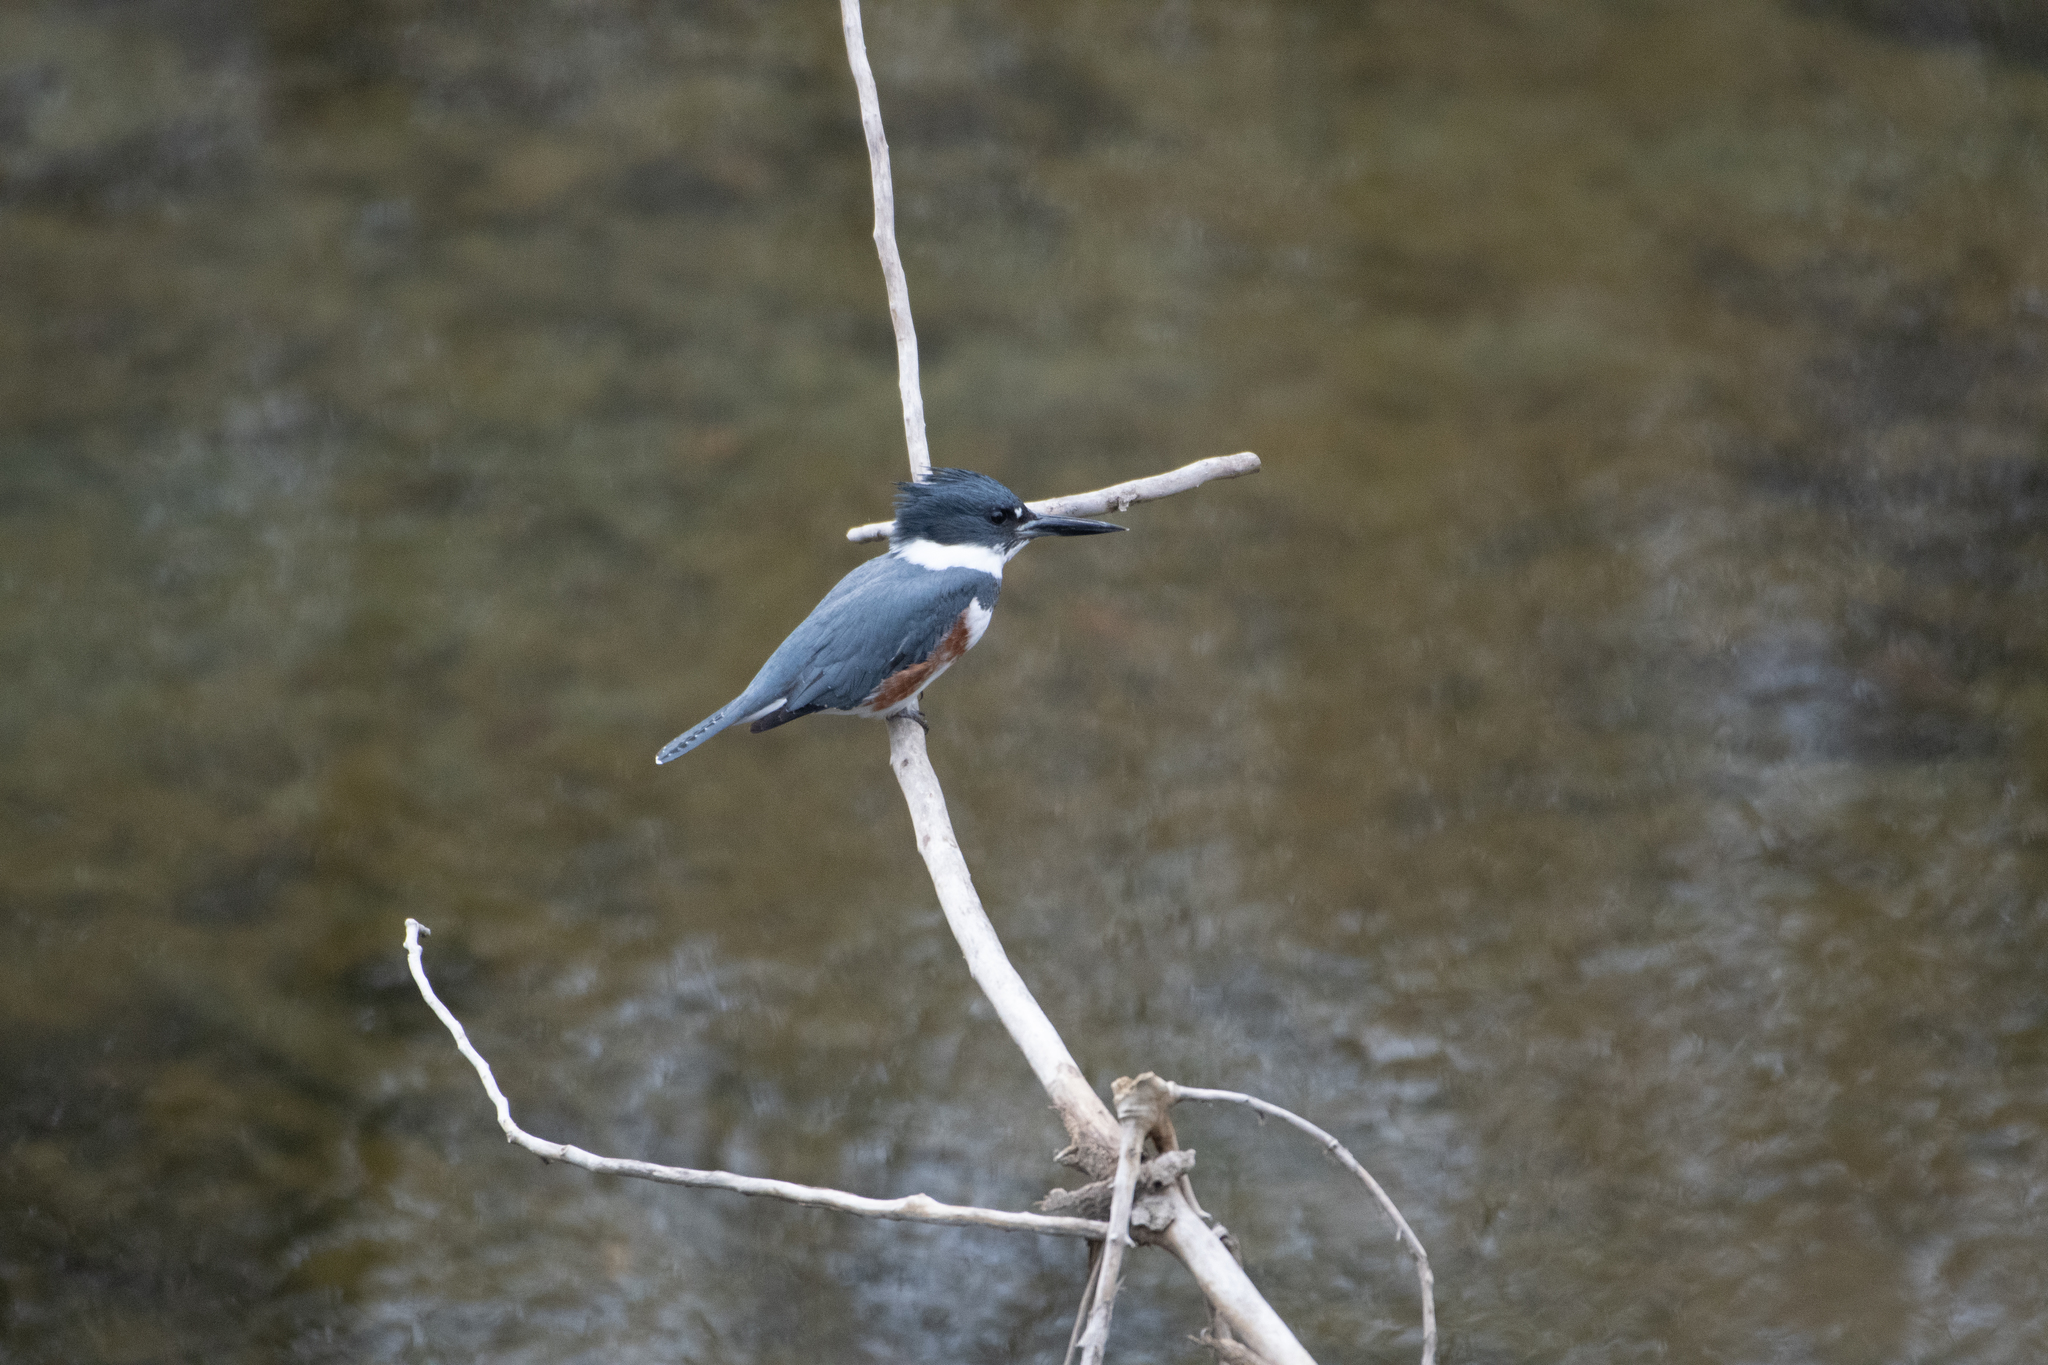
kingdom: Animalia
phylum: Chordata
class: Aves
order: Coraciiformes
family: Alcedinidae
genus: Megaceryle
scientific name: Megaceryle alcyon
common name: Belted kingfisher
